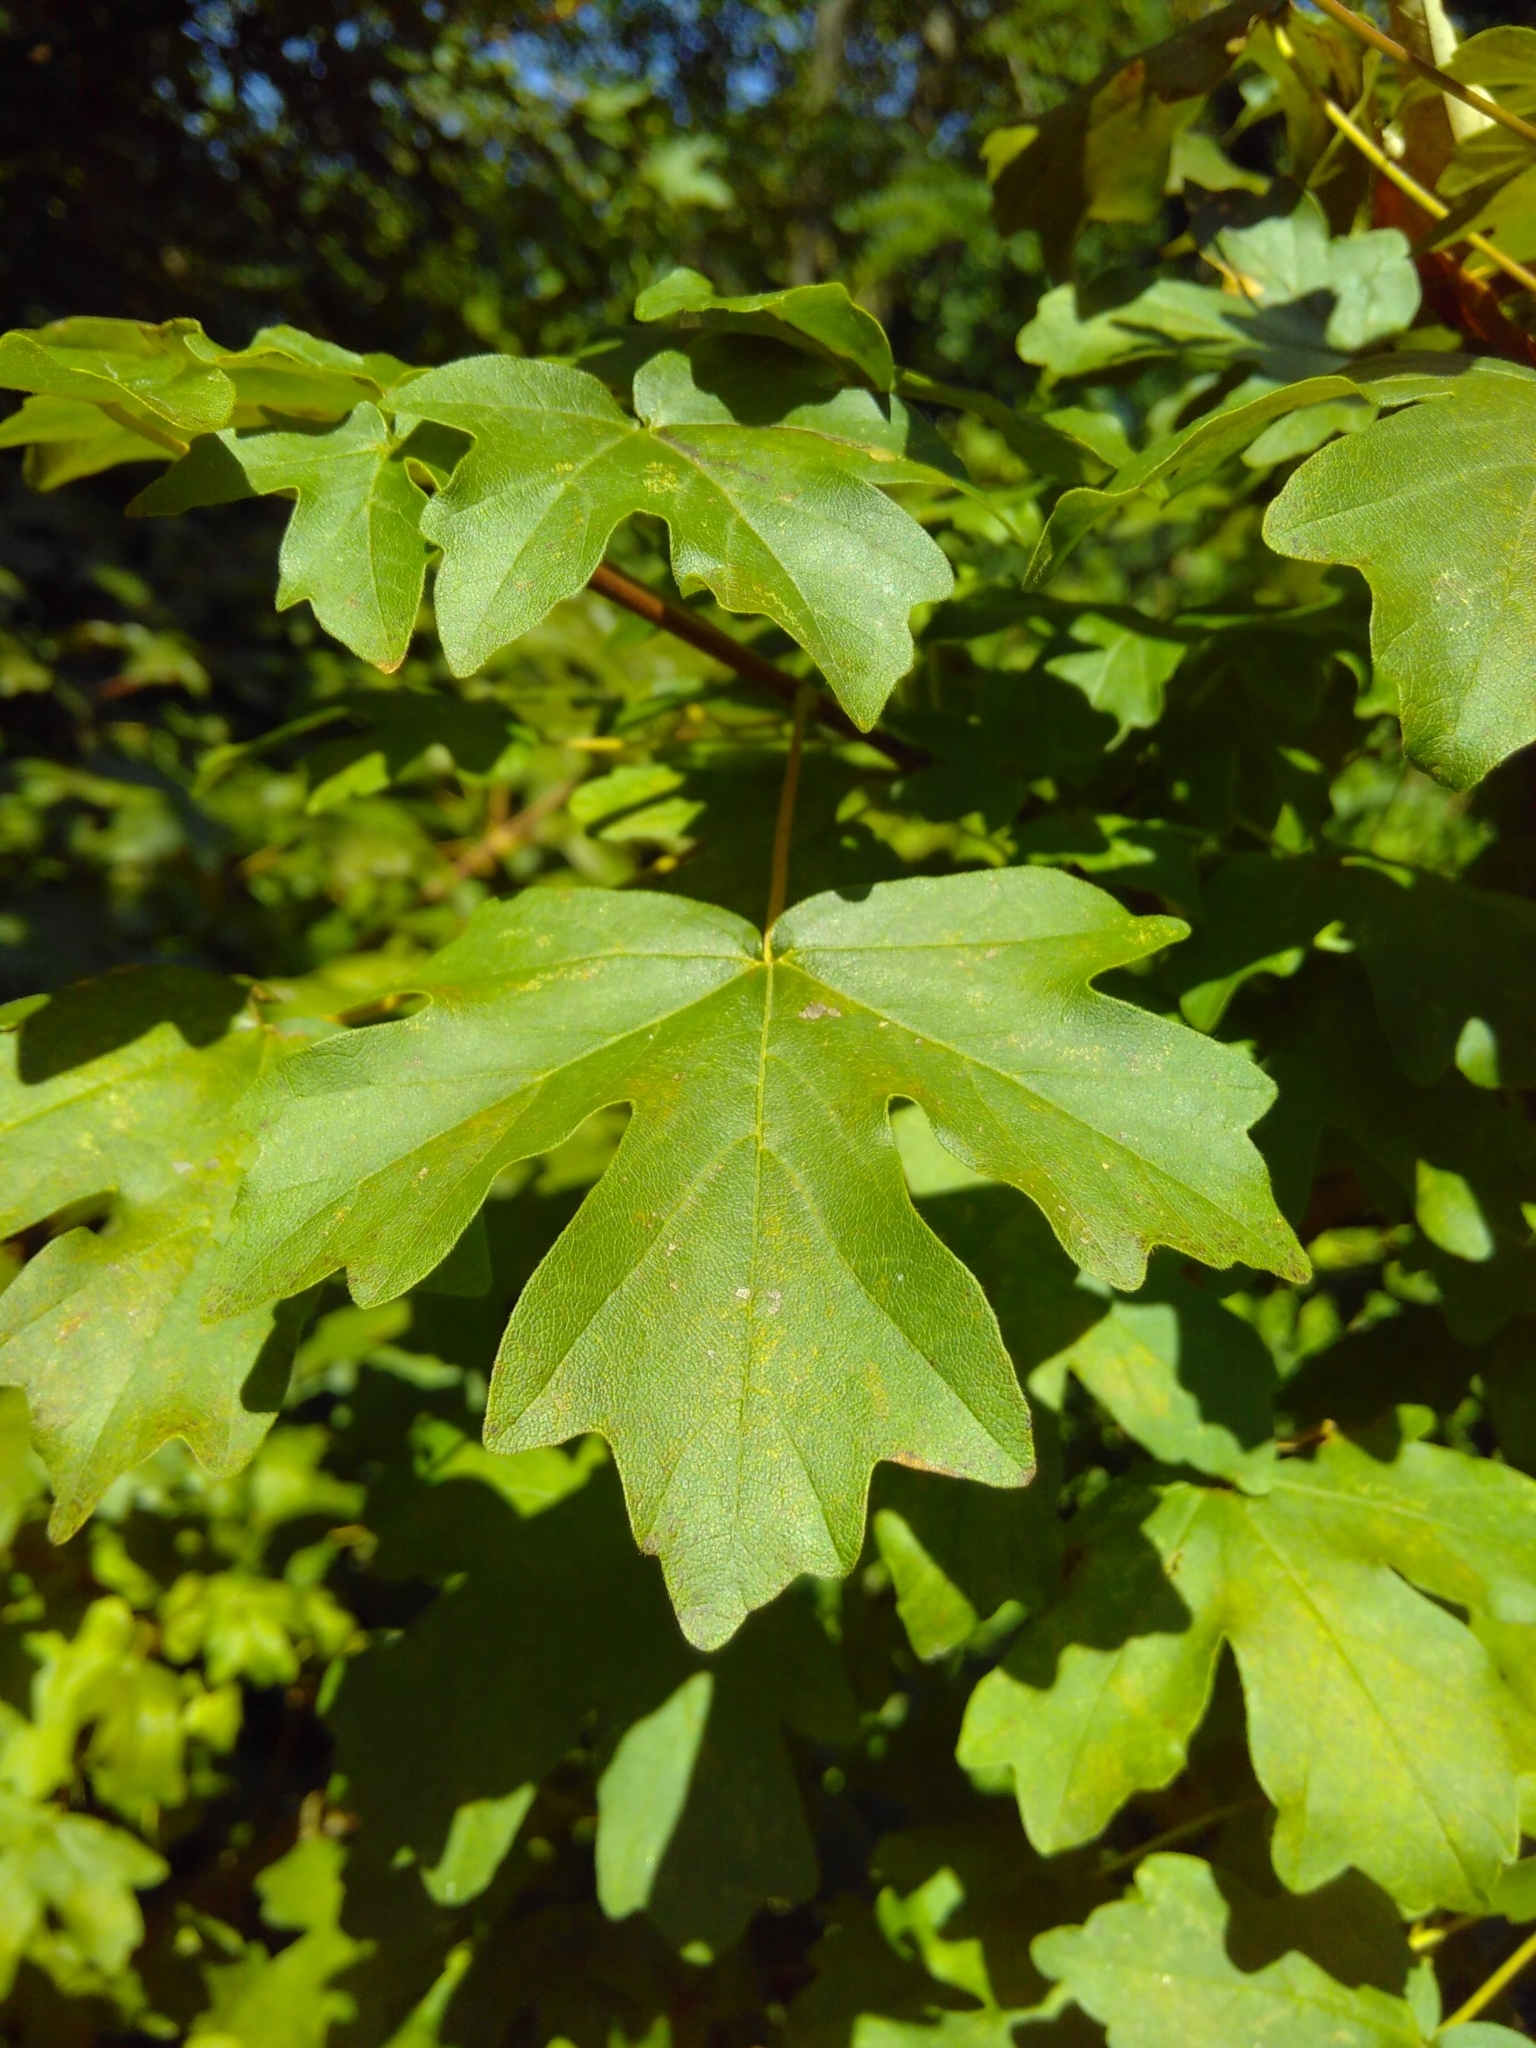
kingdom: Plantae
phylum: Tracheophyta
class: Magnoliopsida
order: Sapindales
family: Sapindaceae
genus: Acer
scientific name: Acer campestre
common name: Field maple
